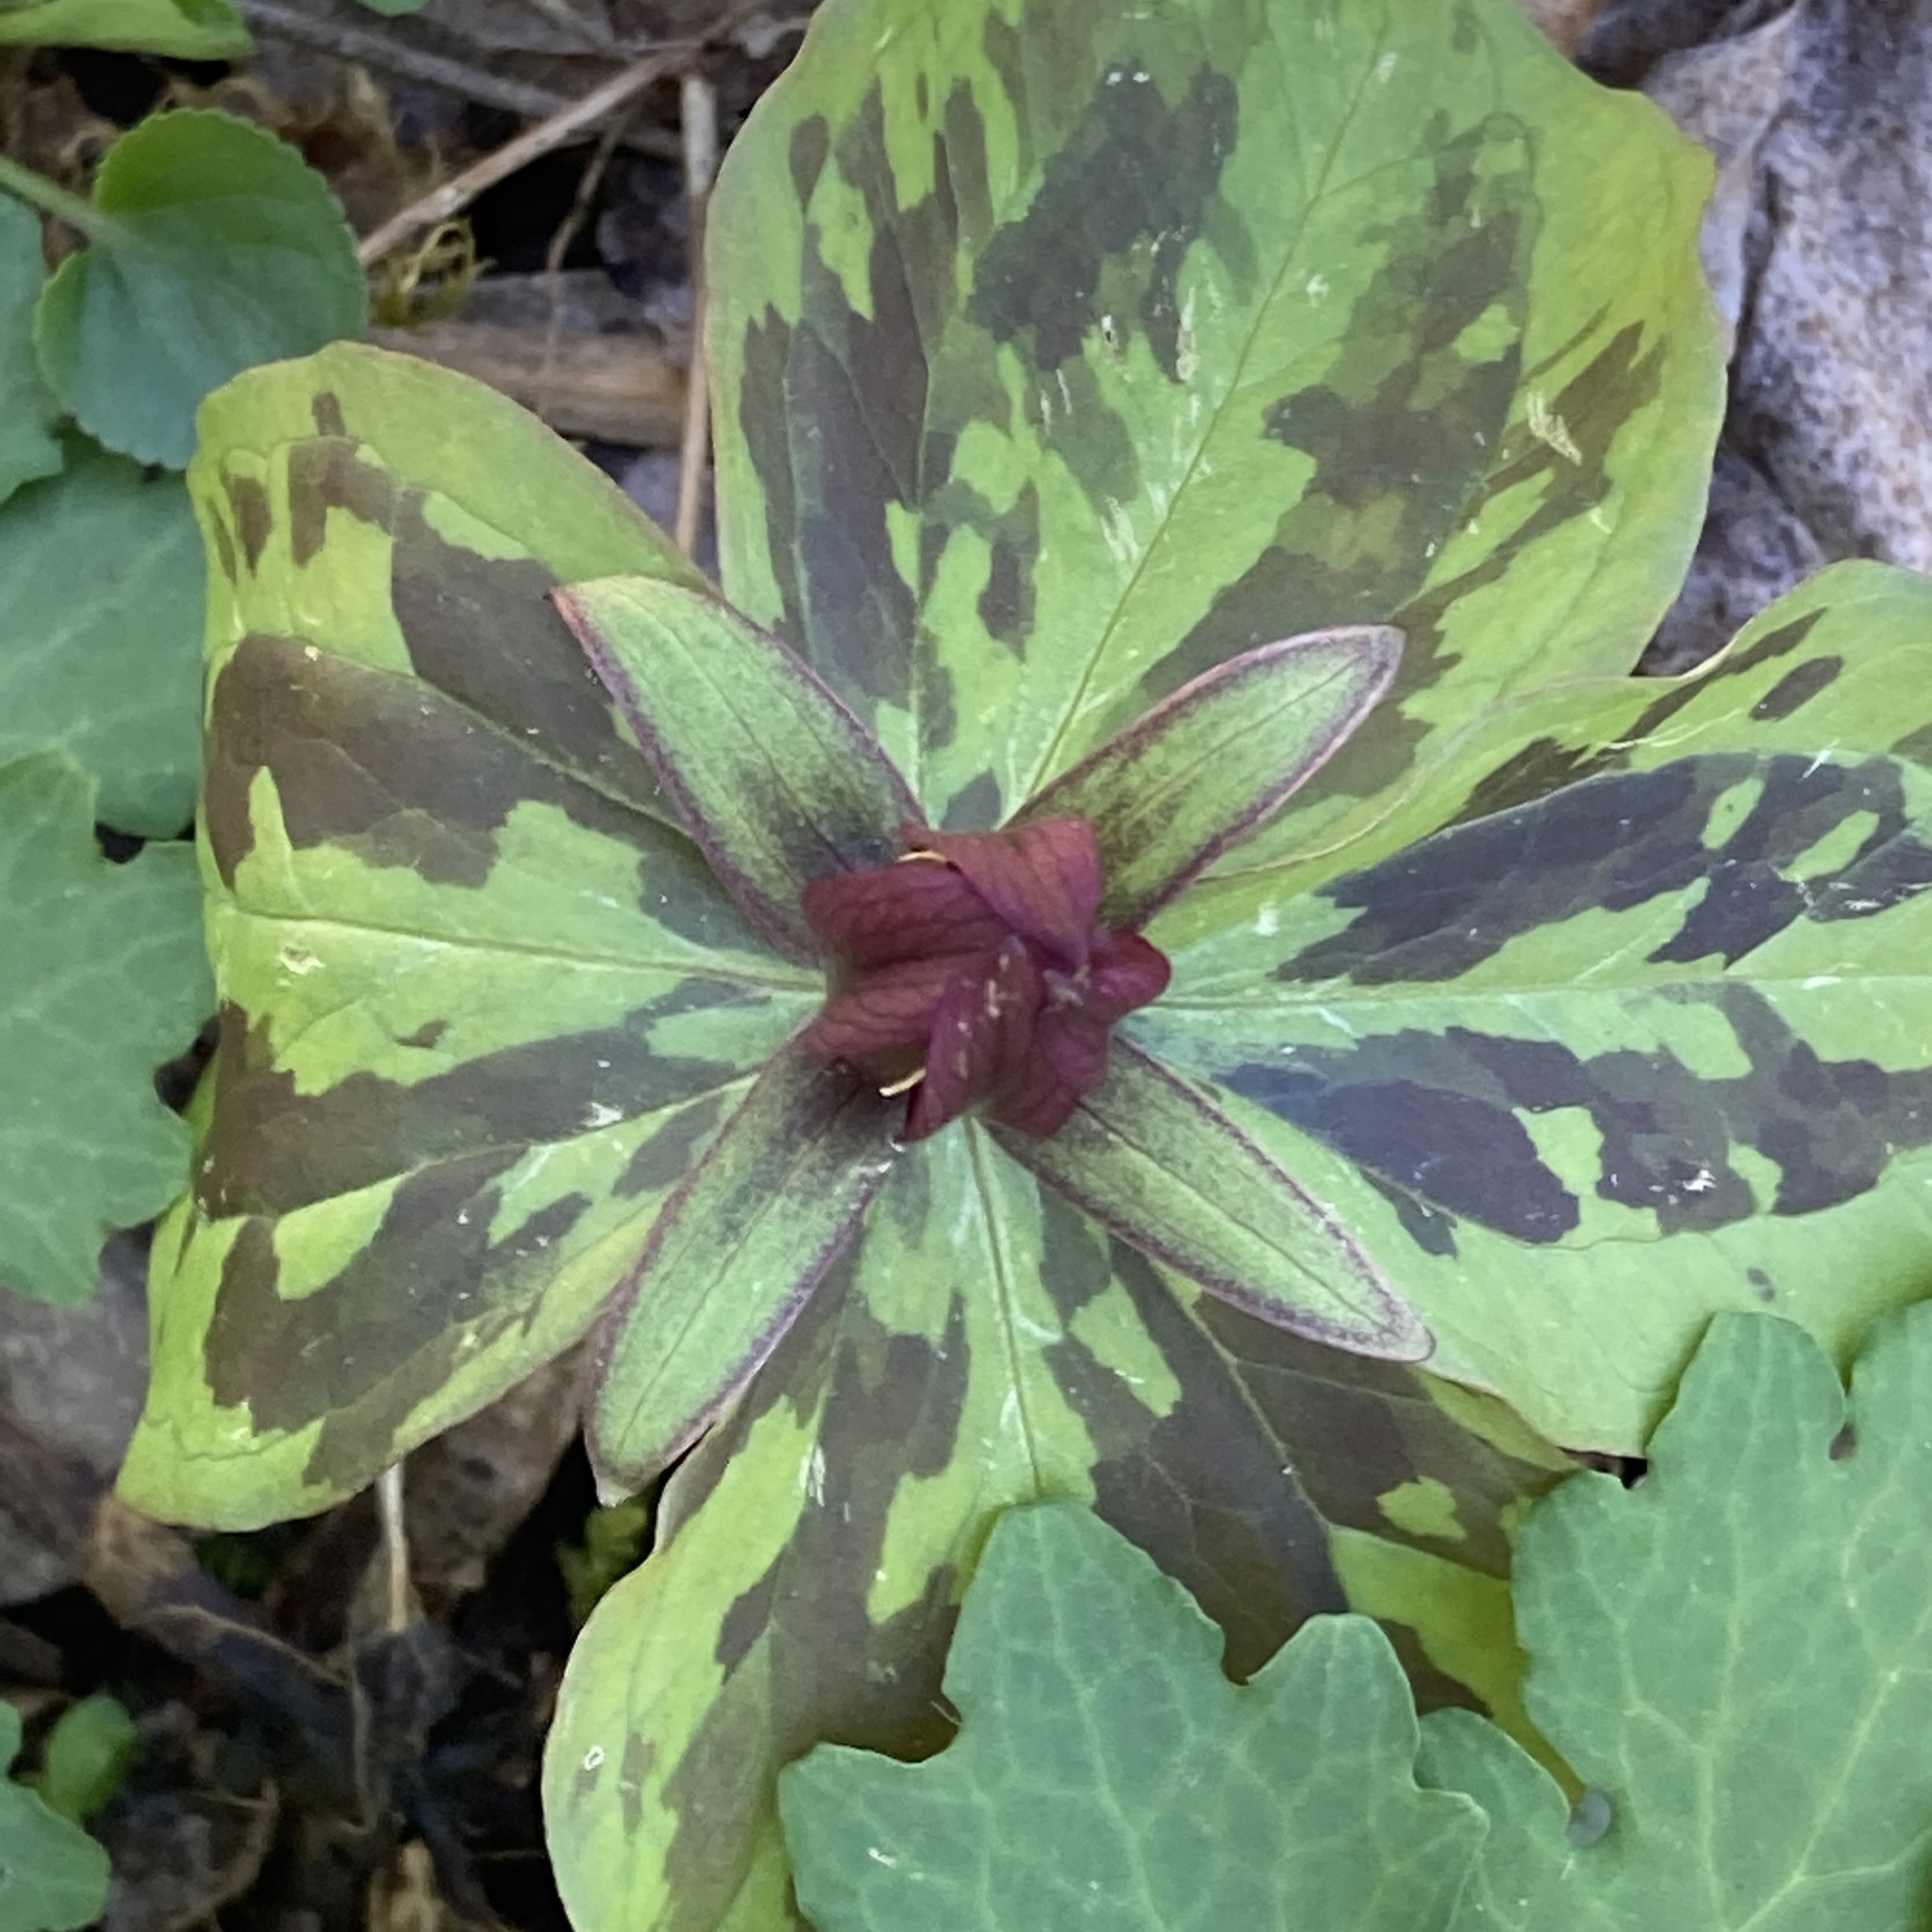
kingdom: Plantae
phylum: Tracheophyta
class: Liliopsida
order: Liliales
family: Melanthiaceae
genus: Trillium
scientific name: Trillium sessile
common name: Sessile trillium
